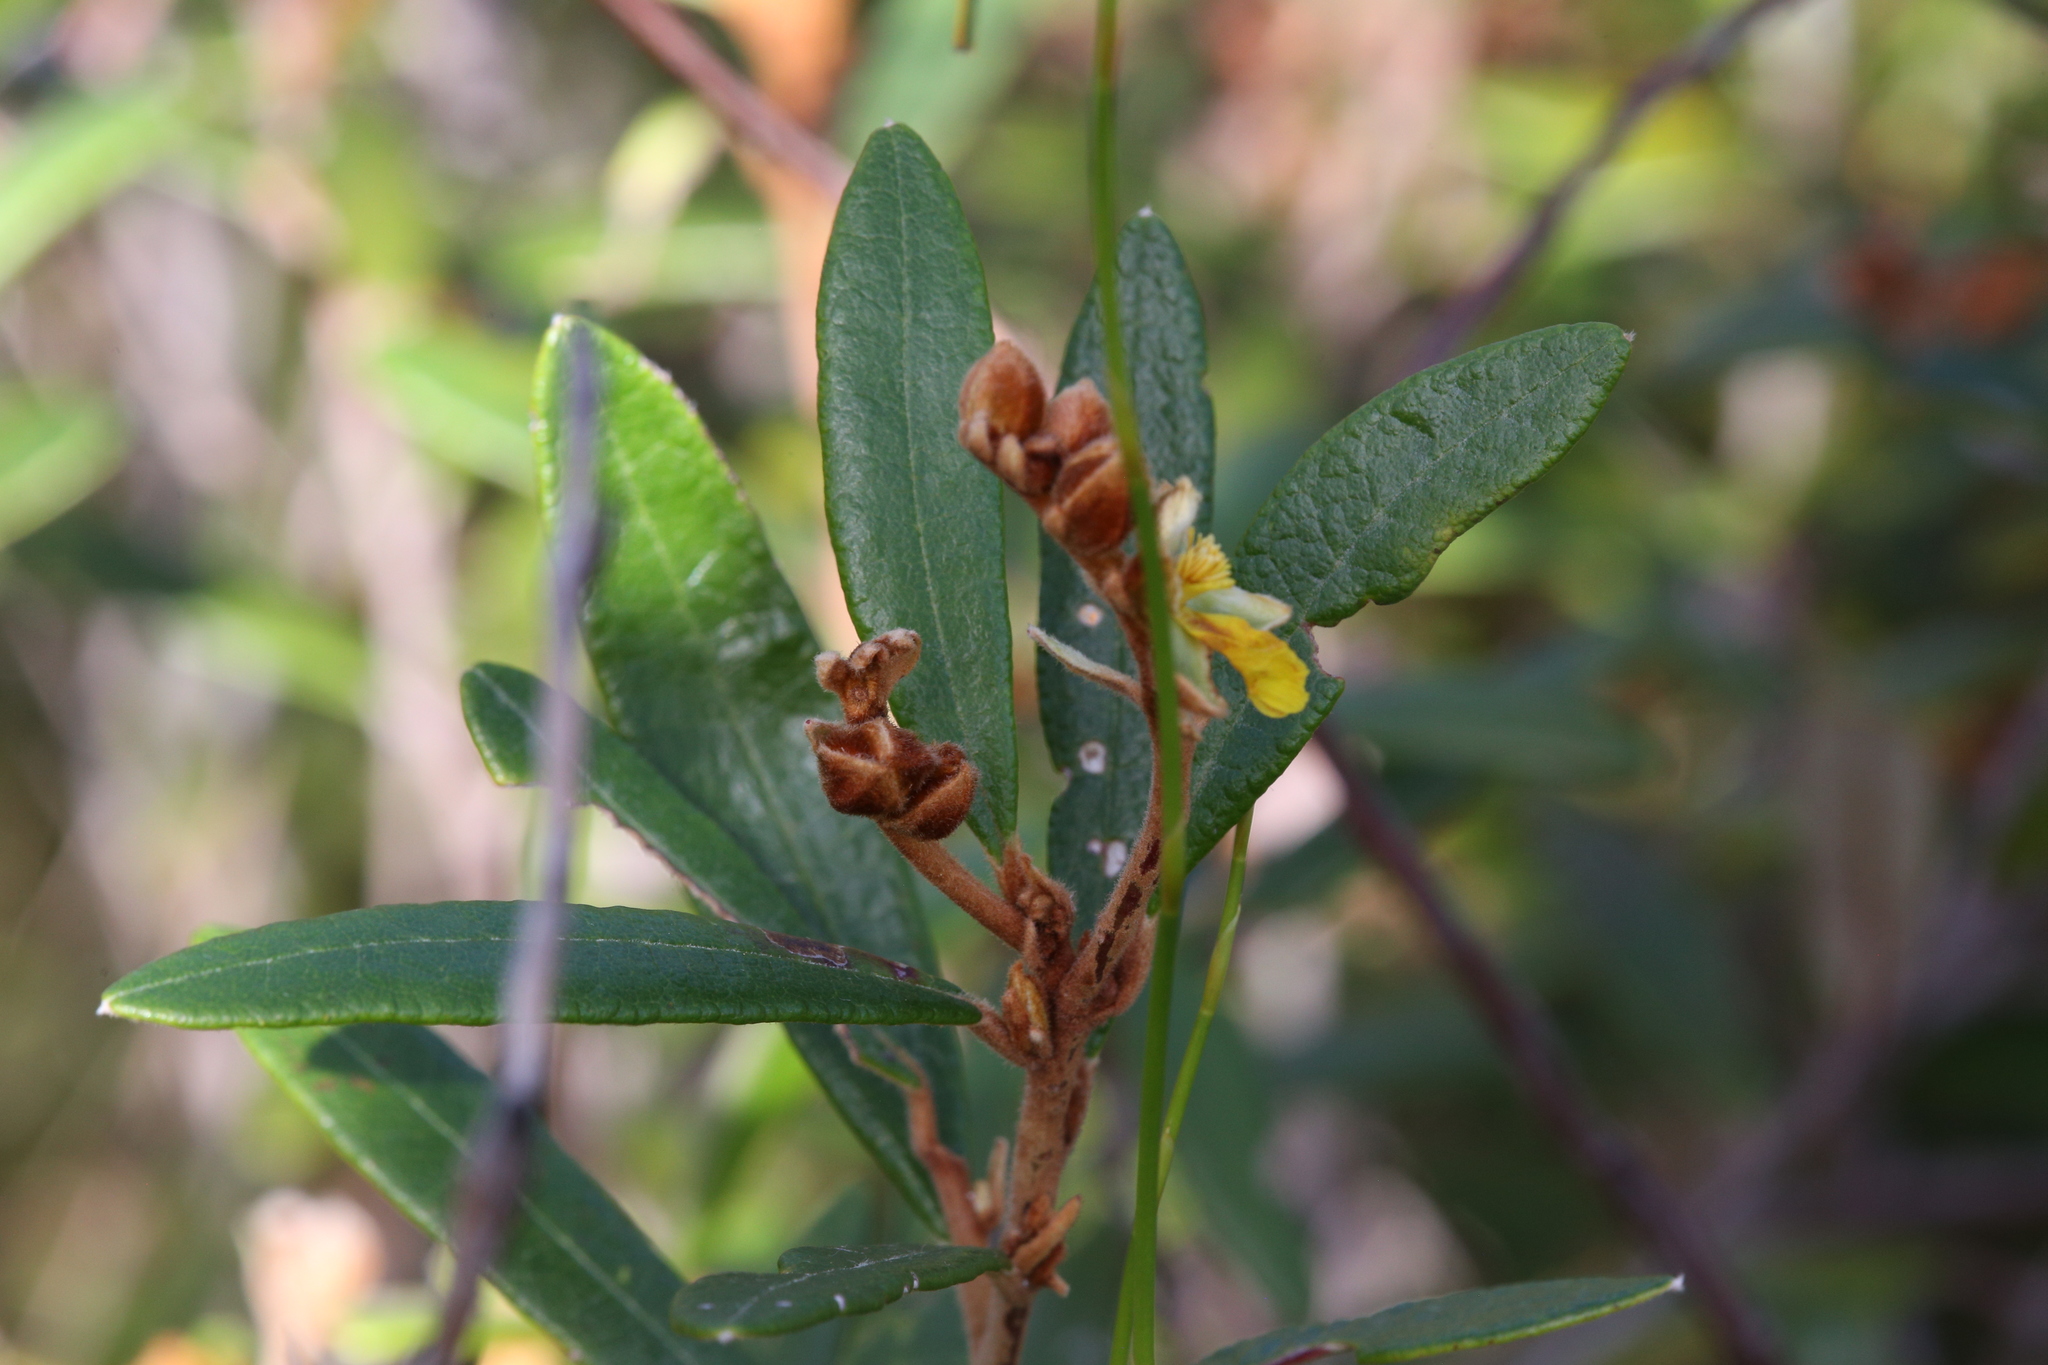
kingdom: Plantae
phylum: Tracheophyta
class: Magnoliopsida
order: Dilleniales
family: Dilleniaceae
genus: Hibbertia
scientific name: Hibbertia banksii
